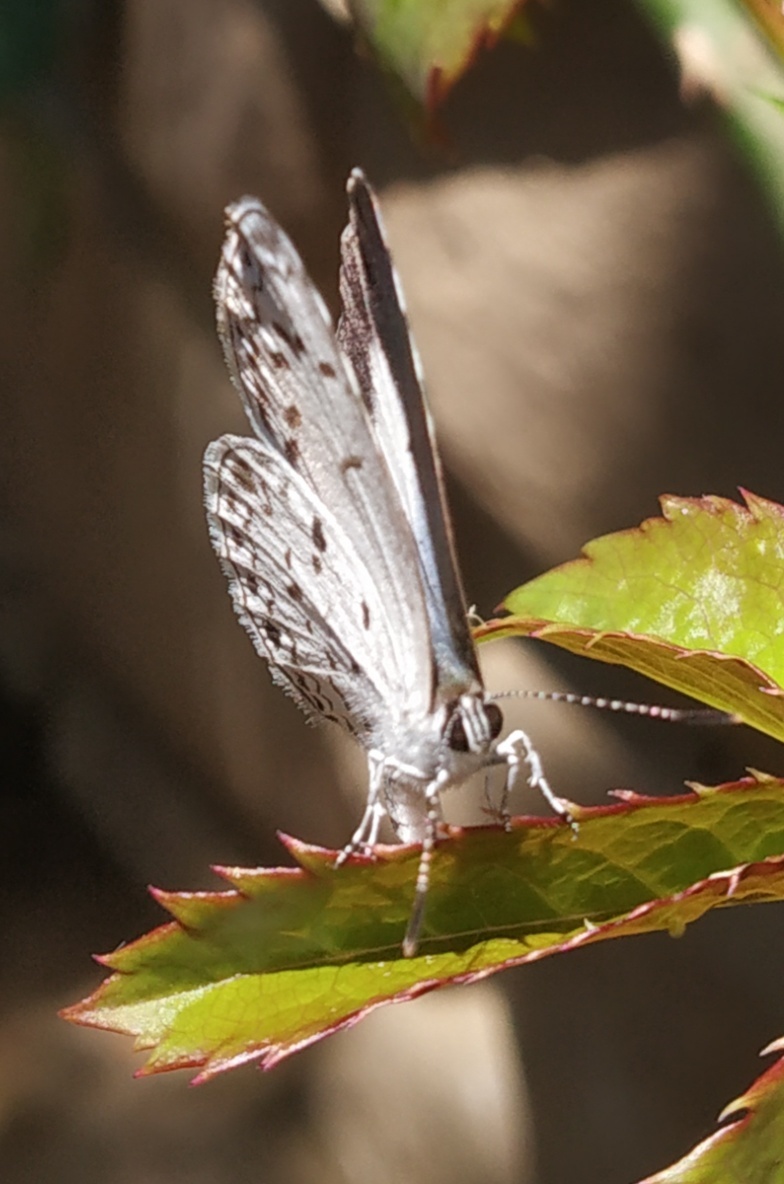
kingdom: Animalia
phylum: Arthropoda
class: Insecta
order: Lepidoptera
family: Lycaenidae
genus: Acytolepis
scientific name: Acytolepis puspa
